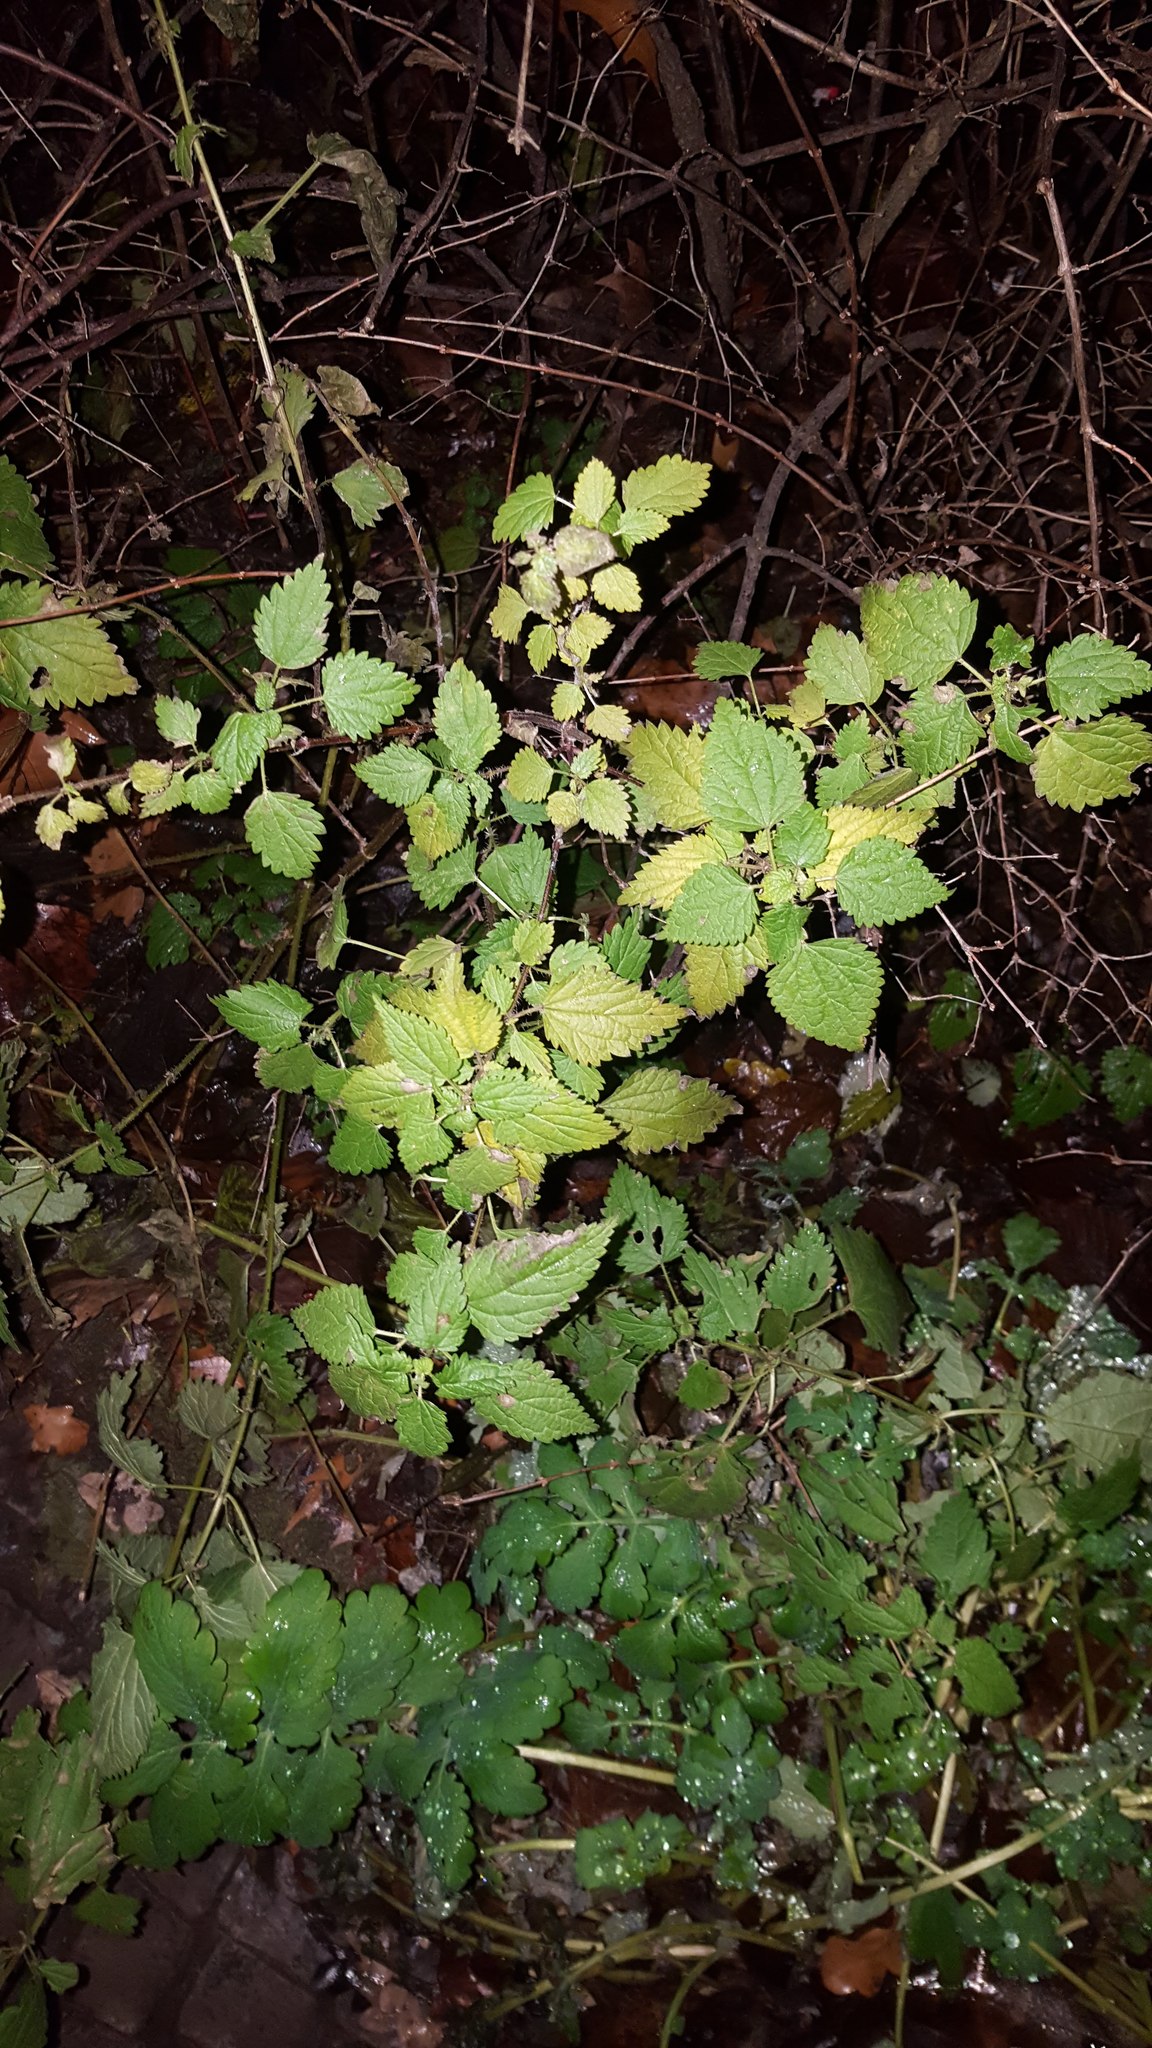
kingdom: Plantae
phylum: Tracheophyta
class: Magnoliopsida
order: Rosales
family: Urticaceae
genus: Urtica
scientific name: Urtica dioica
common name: Common nettle
